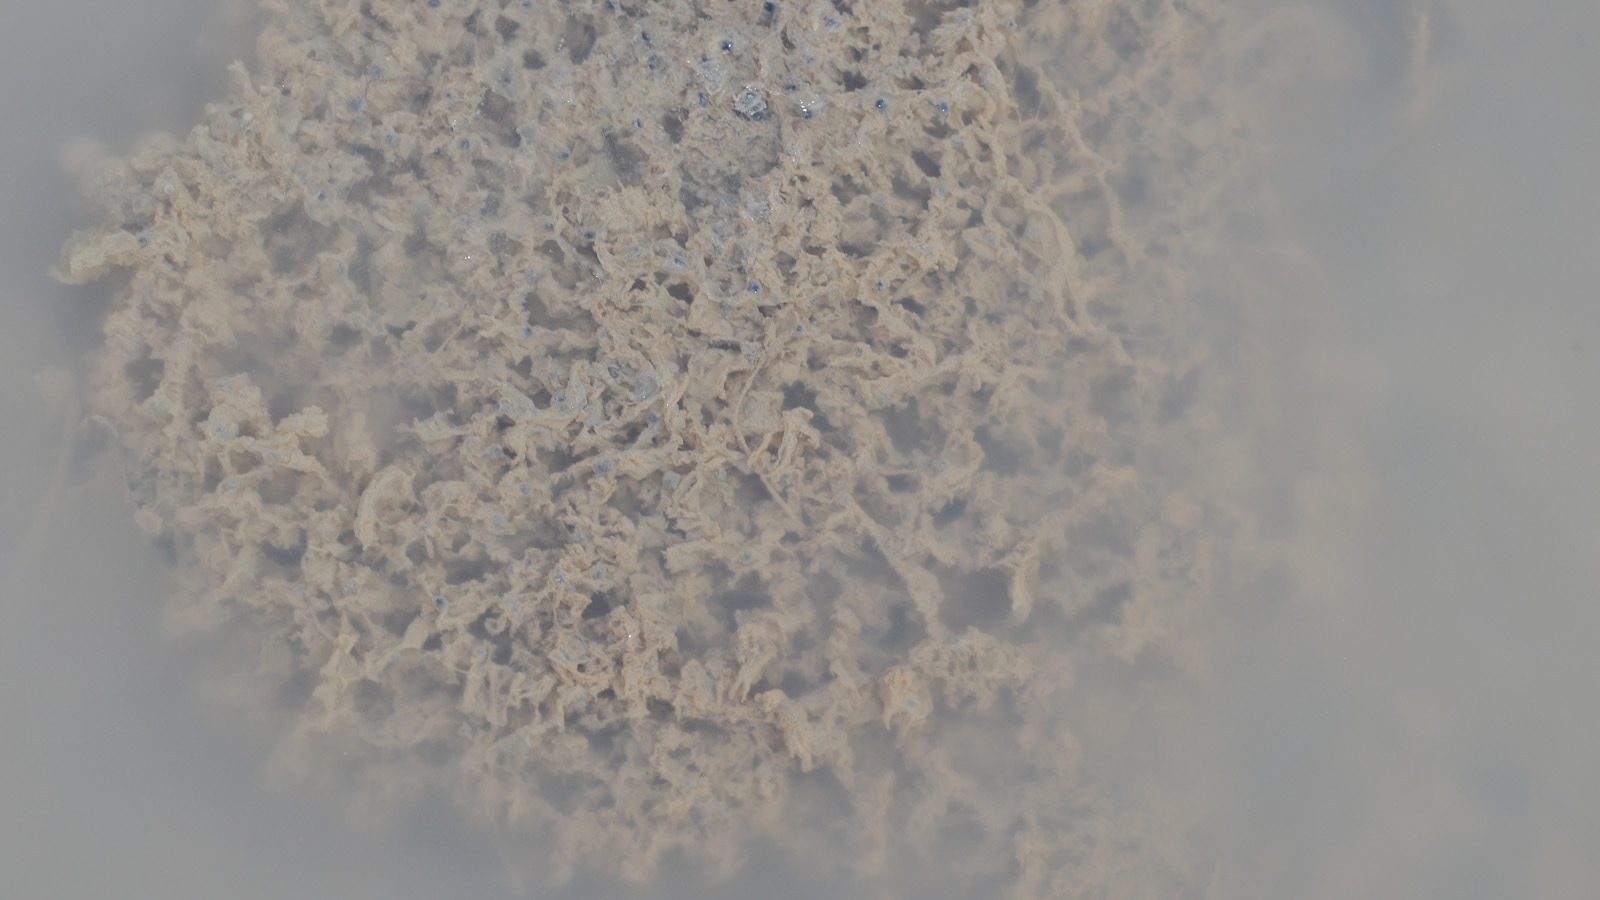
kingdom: Animalia
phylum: Chordata
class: Amphibia
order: Anura
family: Ranidae
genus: Rana
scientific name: Rana uenoi
